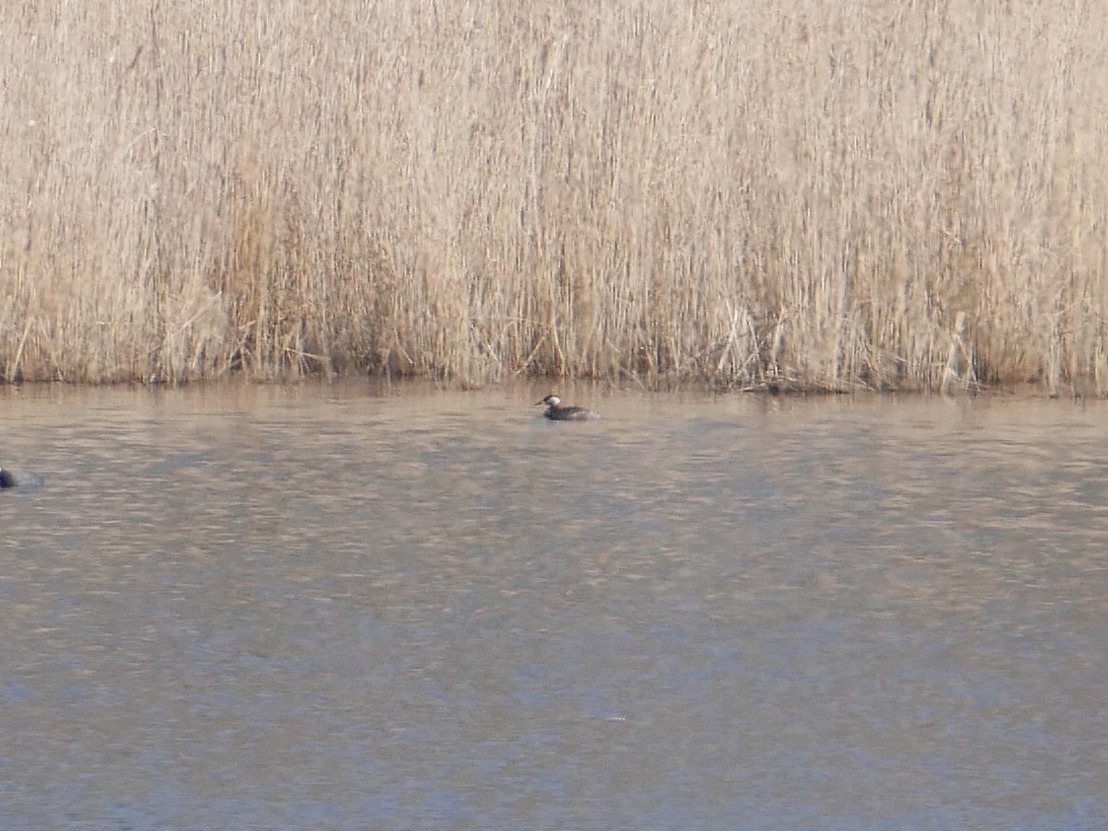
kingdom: Animalia
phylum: Chordata
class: Aves
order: Podicipediformes
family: Podicipedidae
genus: Podiceps
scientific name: Podiceps grisegena
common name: Red-necked grebe
